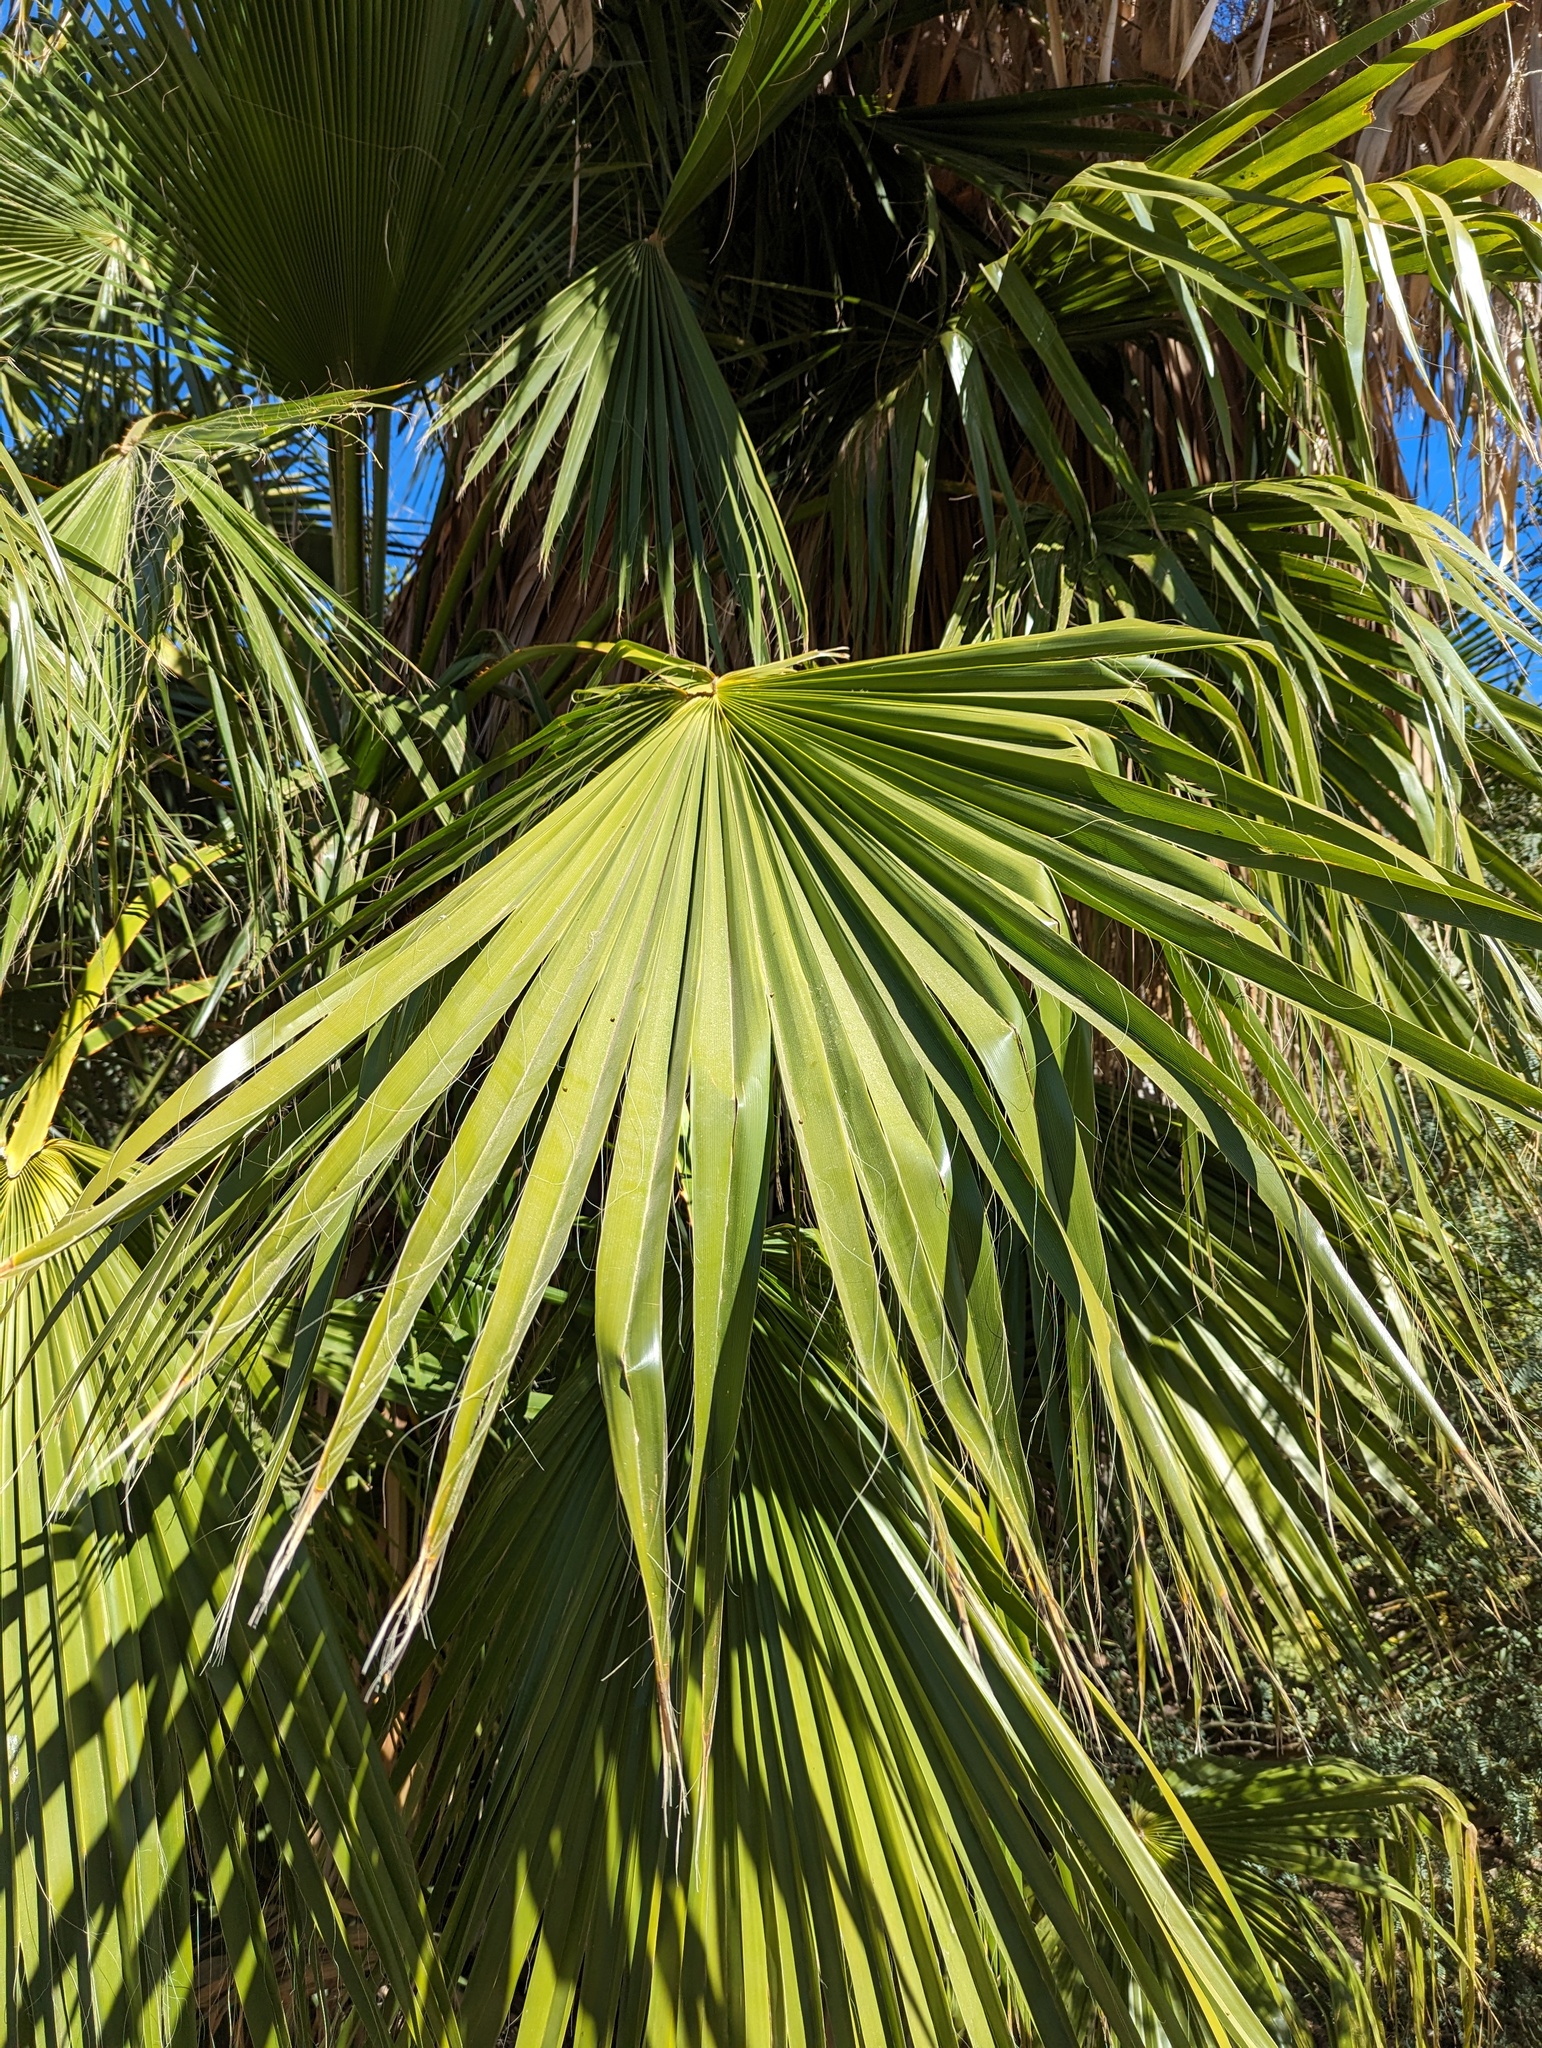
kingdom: Plantae
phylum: Tracheophyta
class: Liliopsida
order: Arecales
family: Arecaceae
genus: Washingtonia
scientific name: Washingtonia robusta
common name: Mexican fan palm
